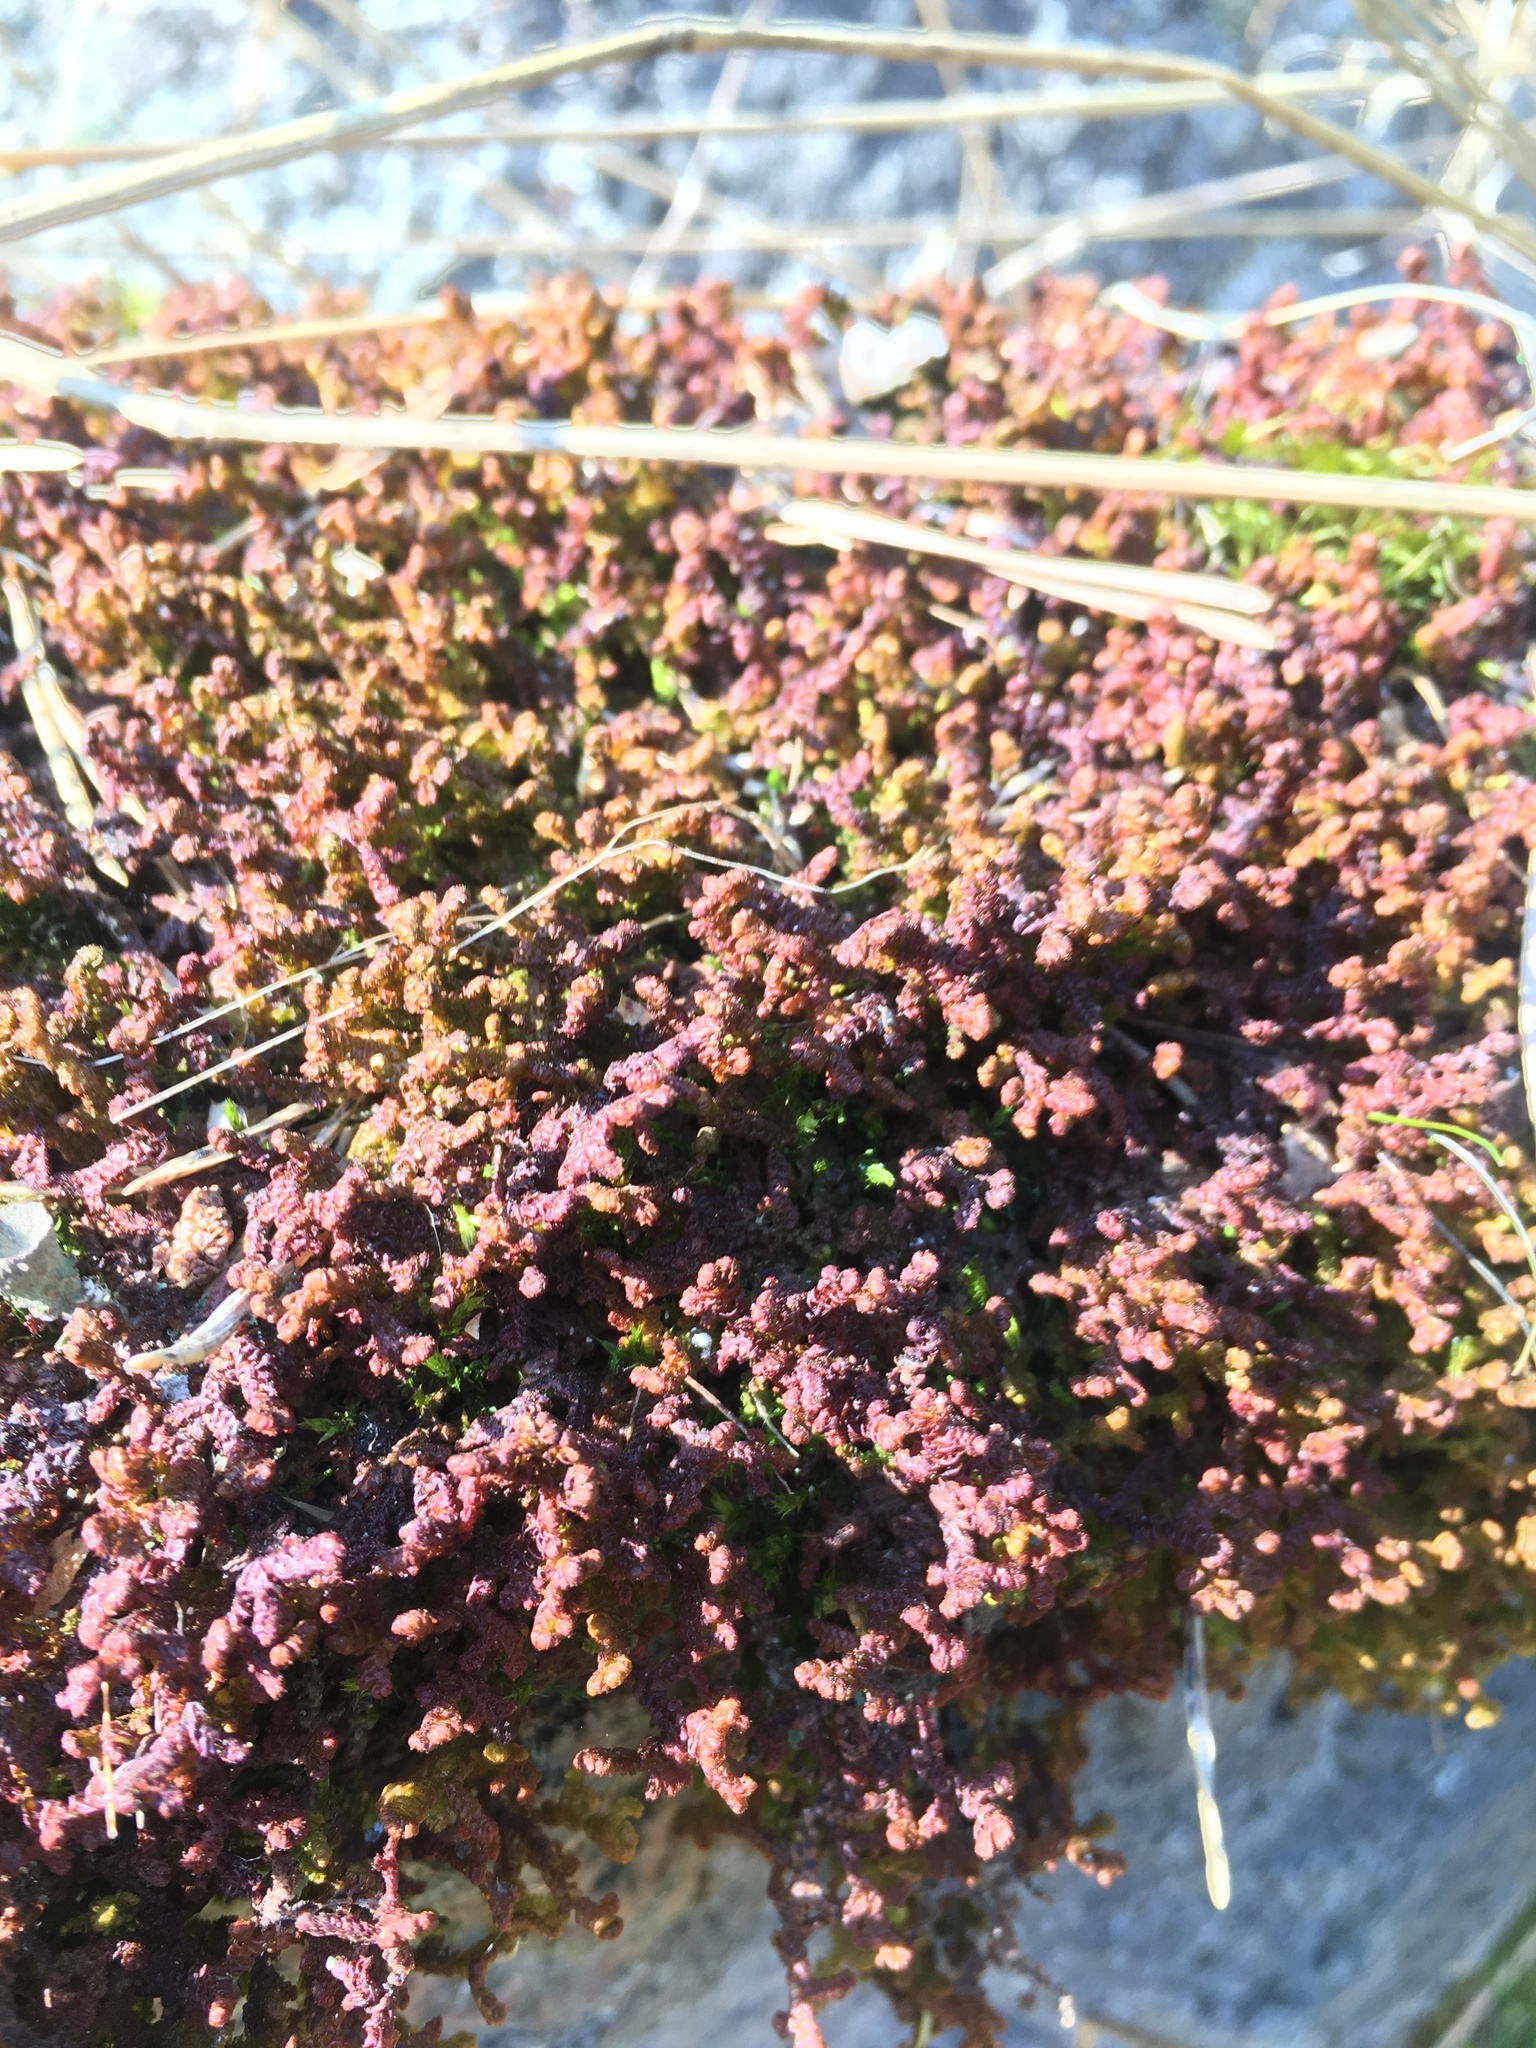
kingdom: Plantae
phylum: Tracheophyta
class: Magnoliopsida
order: Ericales
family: Ericaceae
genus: Calluna
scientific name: Calluna vulgaris
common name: Heather
